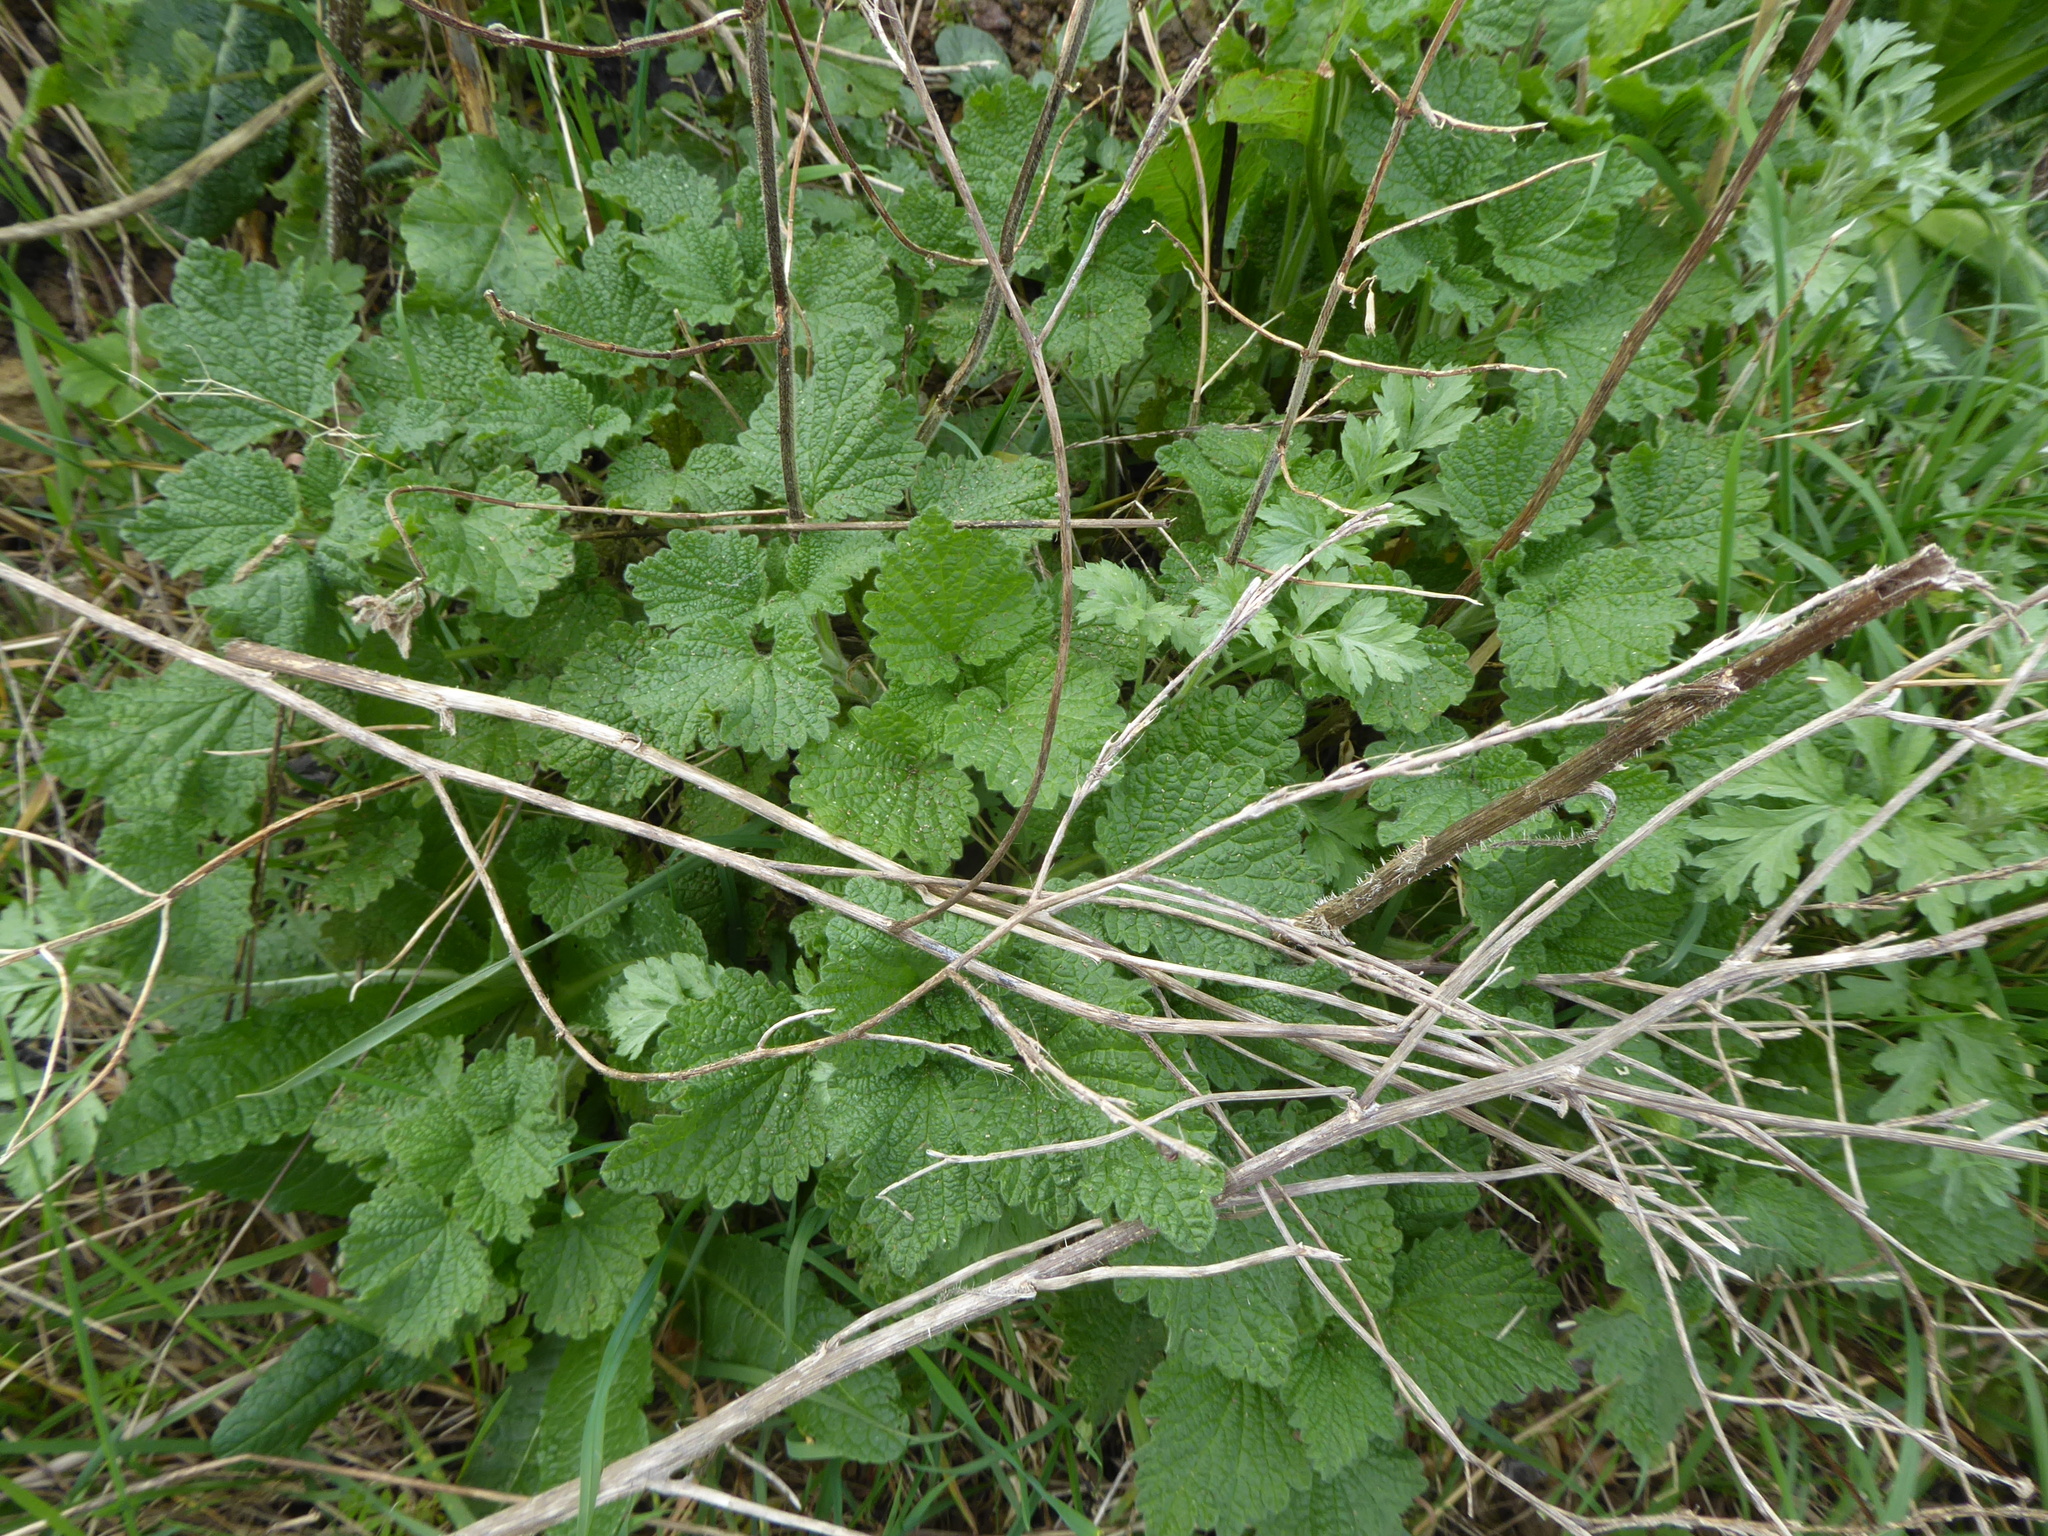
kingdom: Plantae
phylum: Tracheophyta
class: Magnoliopsida
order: Lamiales
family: Lamiaceae
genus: Ballota
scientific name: Ballota nigra
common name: Black horehound
